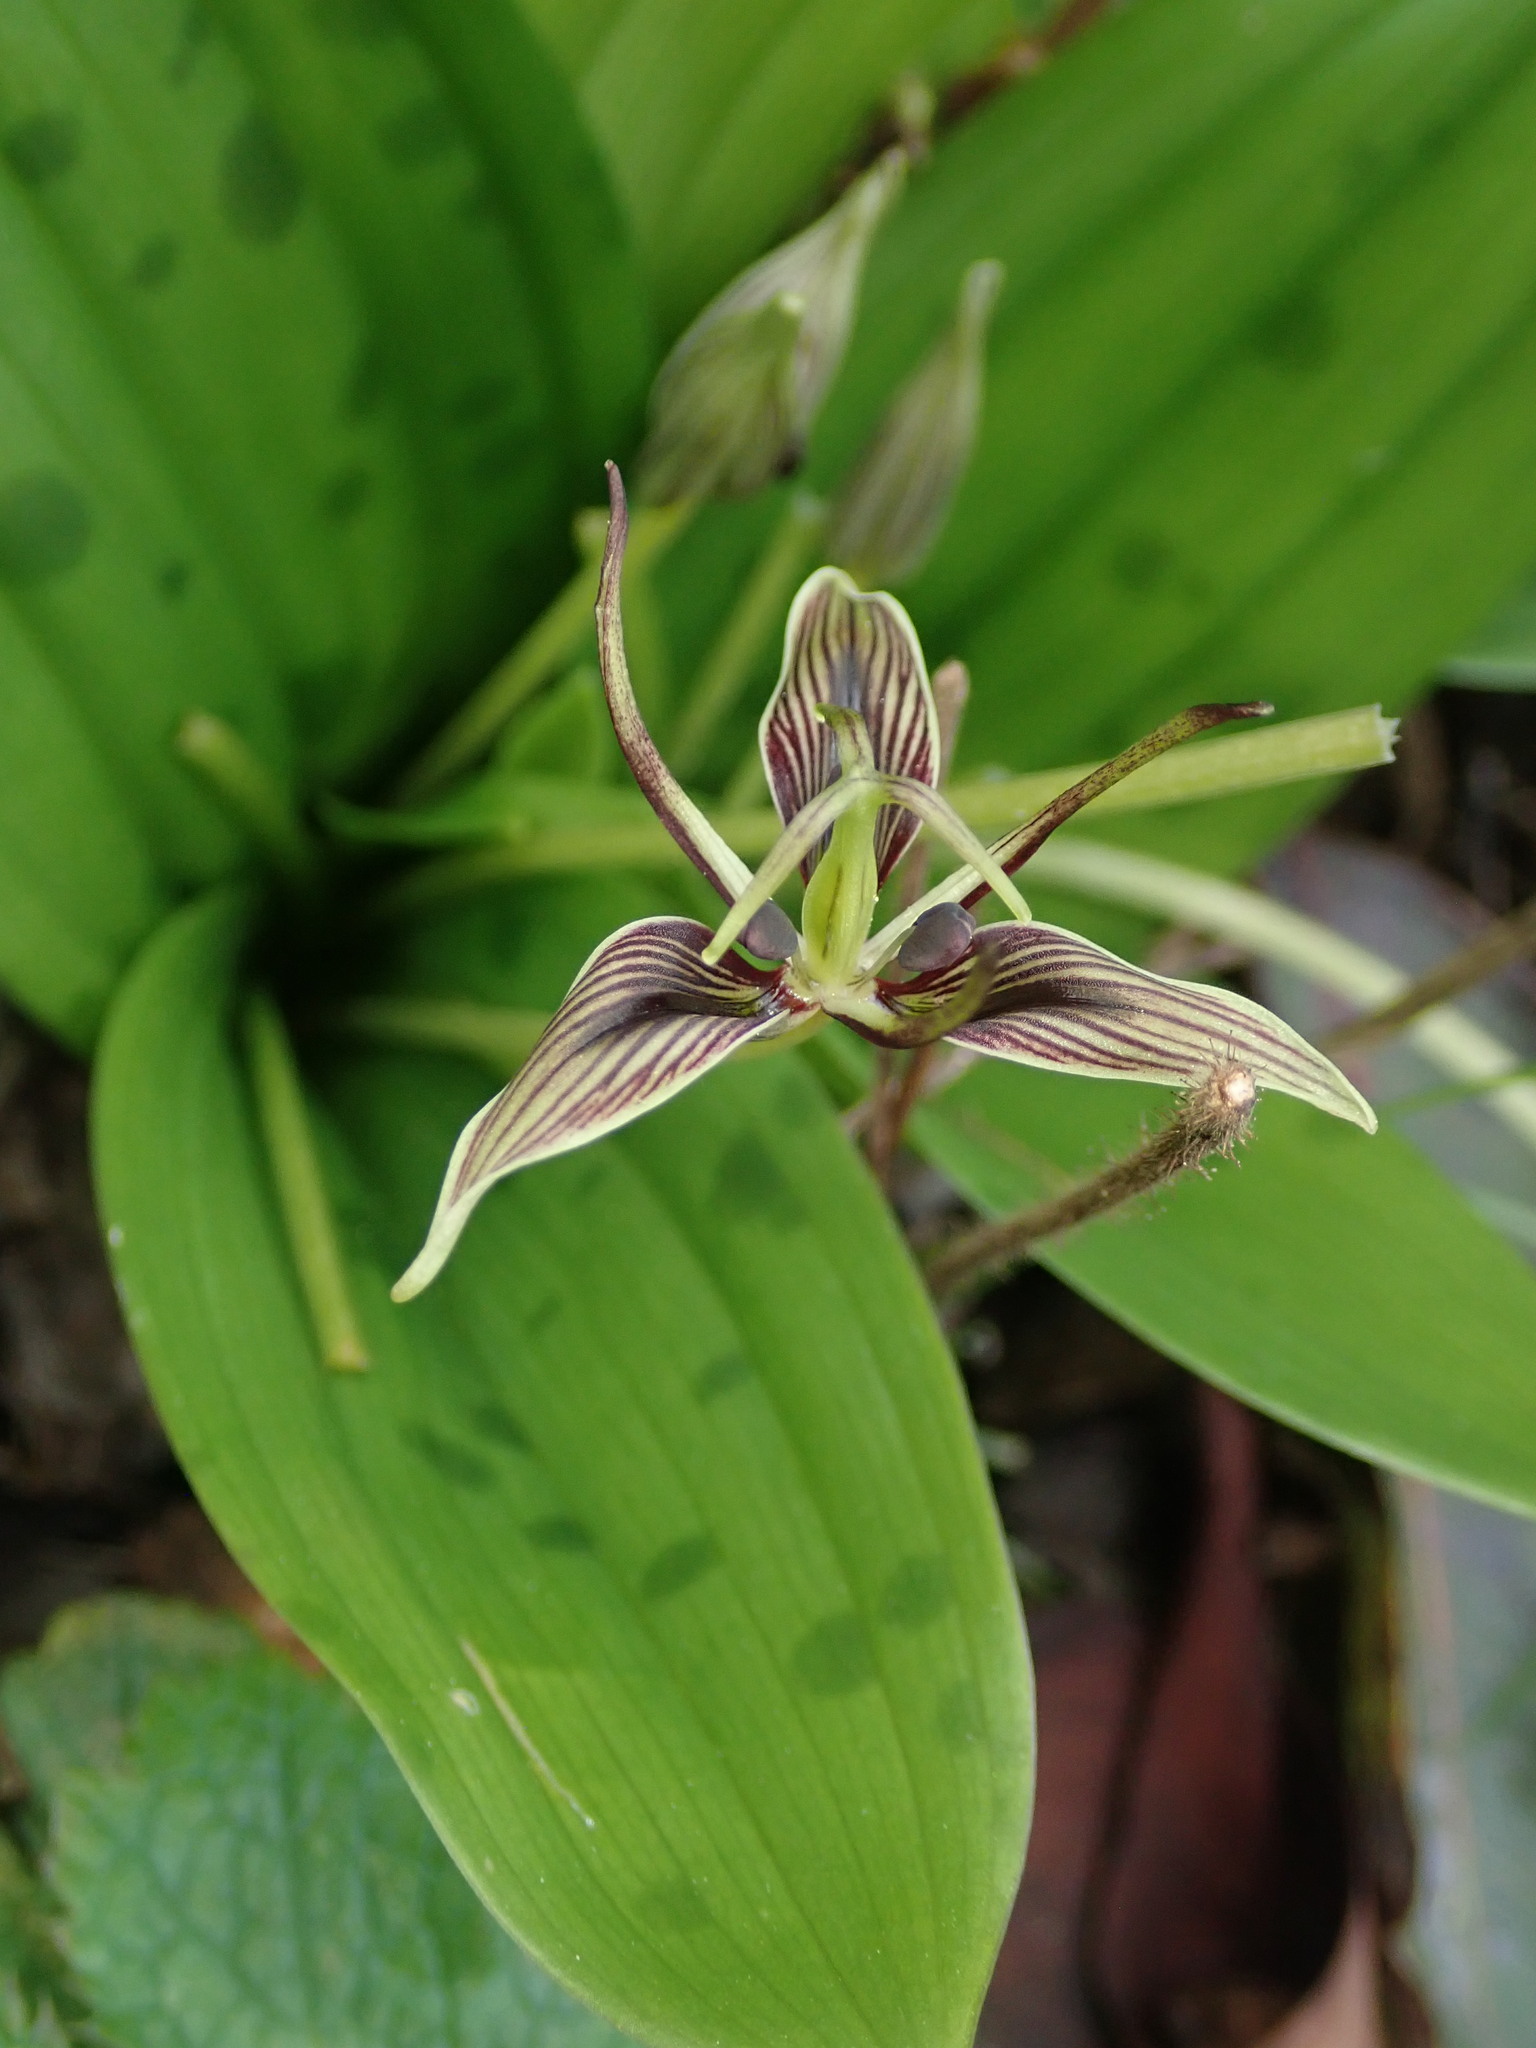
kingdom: Plantae
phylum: Tracheophyta
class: Liliopsida
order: Liliales
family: Liliaceae
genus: Scoliopus
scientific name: Scoliopus bigelovii
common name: Foetid adder's-tongue
